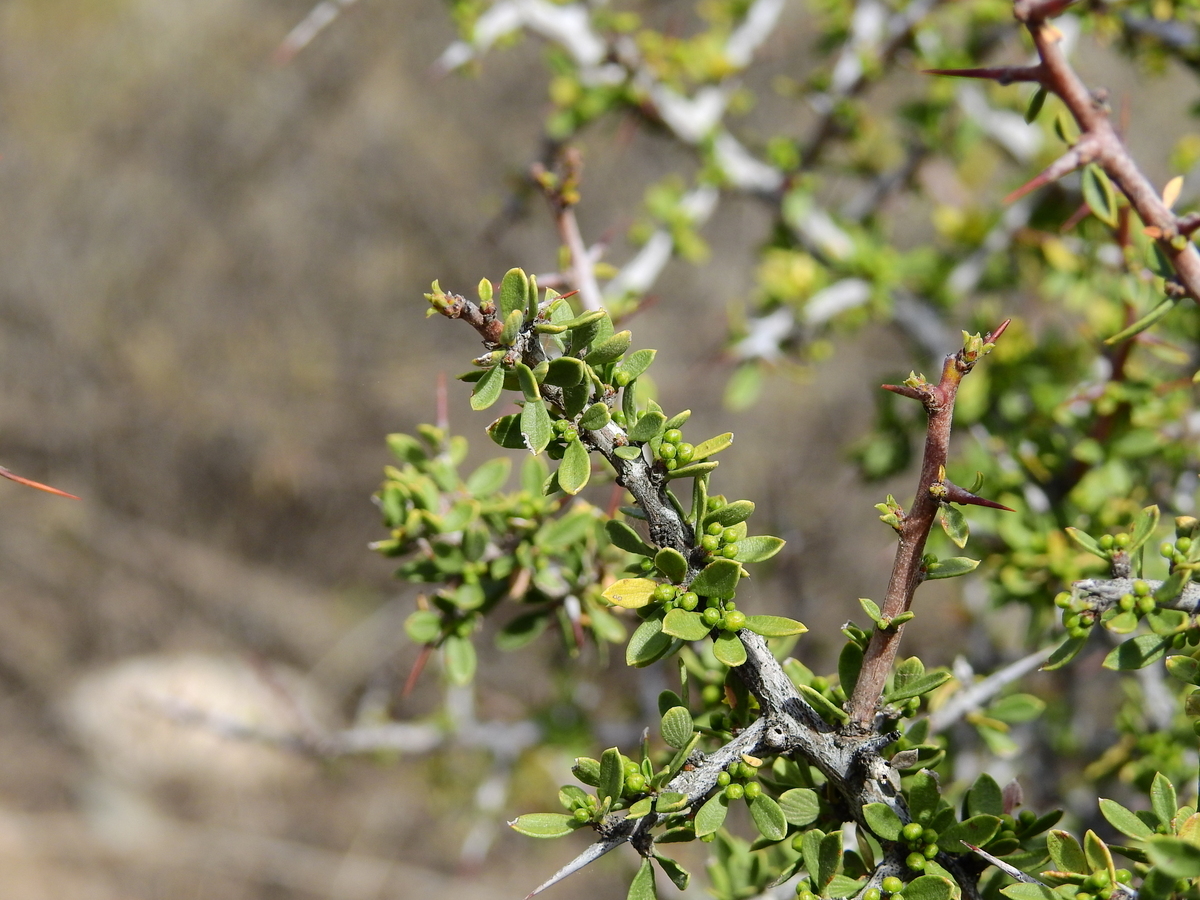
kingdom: Plantae
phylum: Tracheophyta
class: Magnoliopsida
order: Rosales
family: Rhamnaceae
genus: Condalia
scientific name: Condalia microphylla
